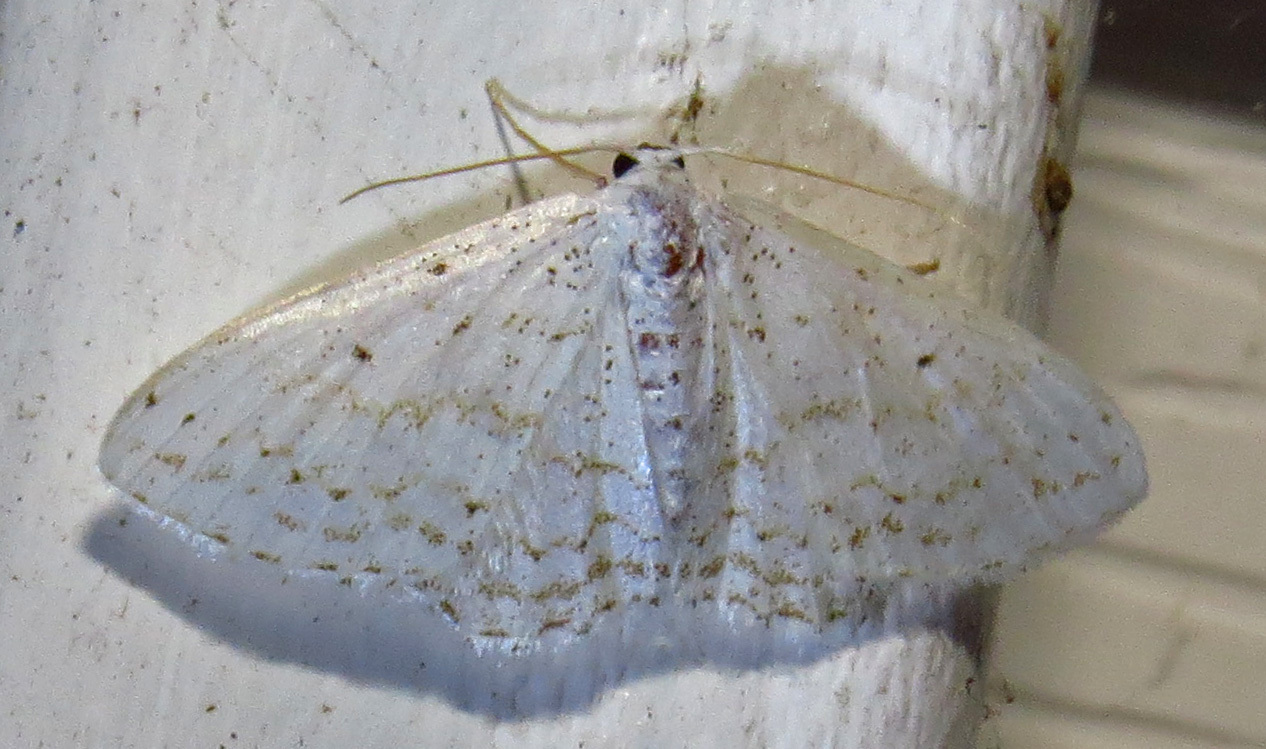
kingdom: Animalia
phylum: Arthropoda
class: Insecta
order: Lepidoptera
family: Geometridae
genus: Idaea
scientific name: Idaea tacturata
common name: Dot-lined wave
